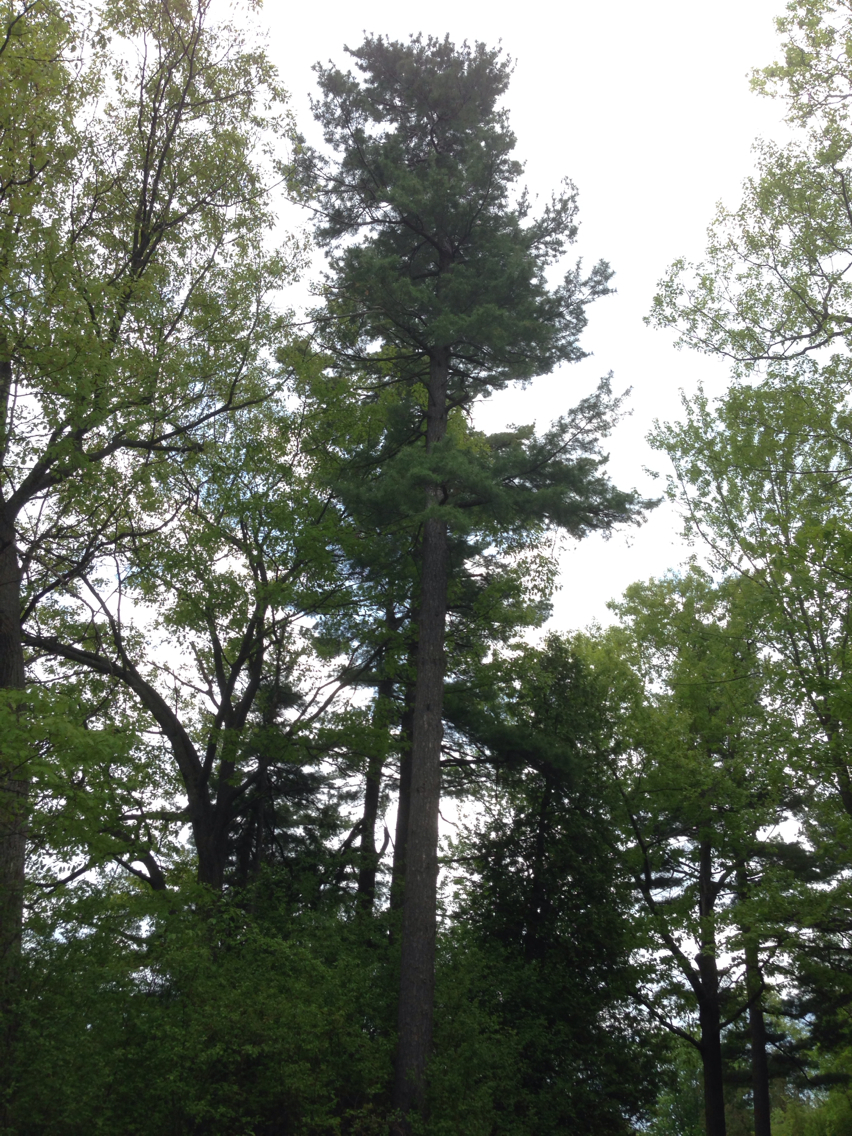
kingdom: Plantae
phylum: Tracheophyta
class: Pinopsida
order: Pinales
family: Pinaceae
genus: Pinus
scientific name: Pinus strobus
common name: Weymouth pine
